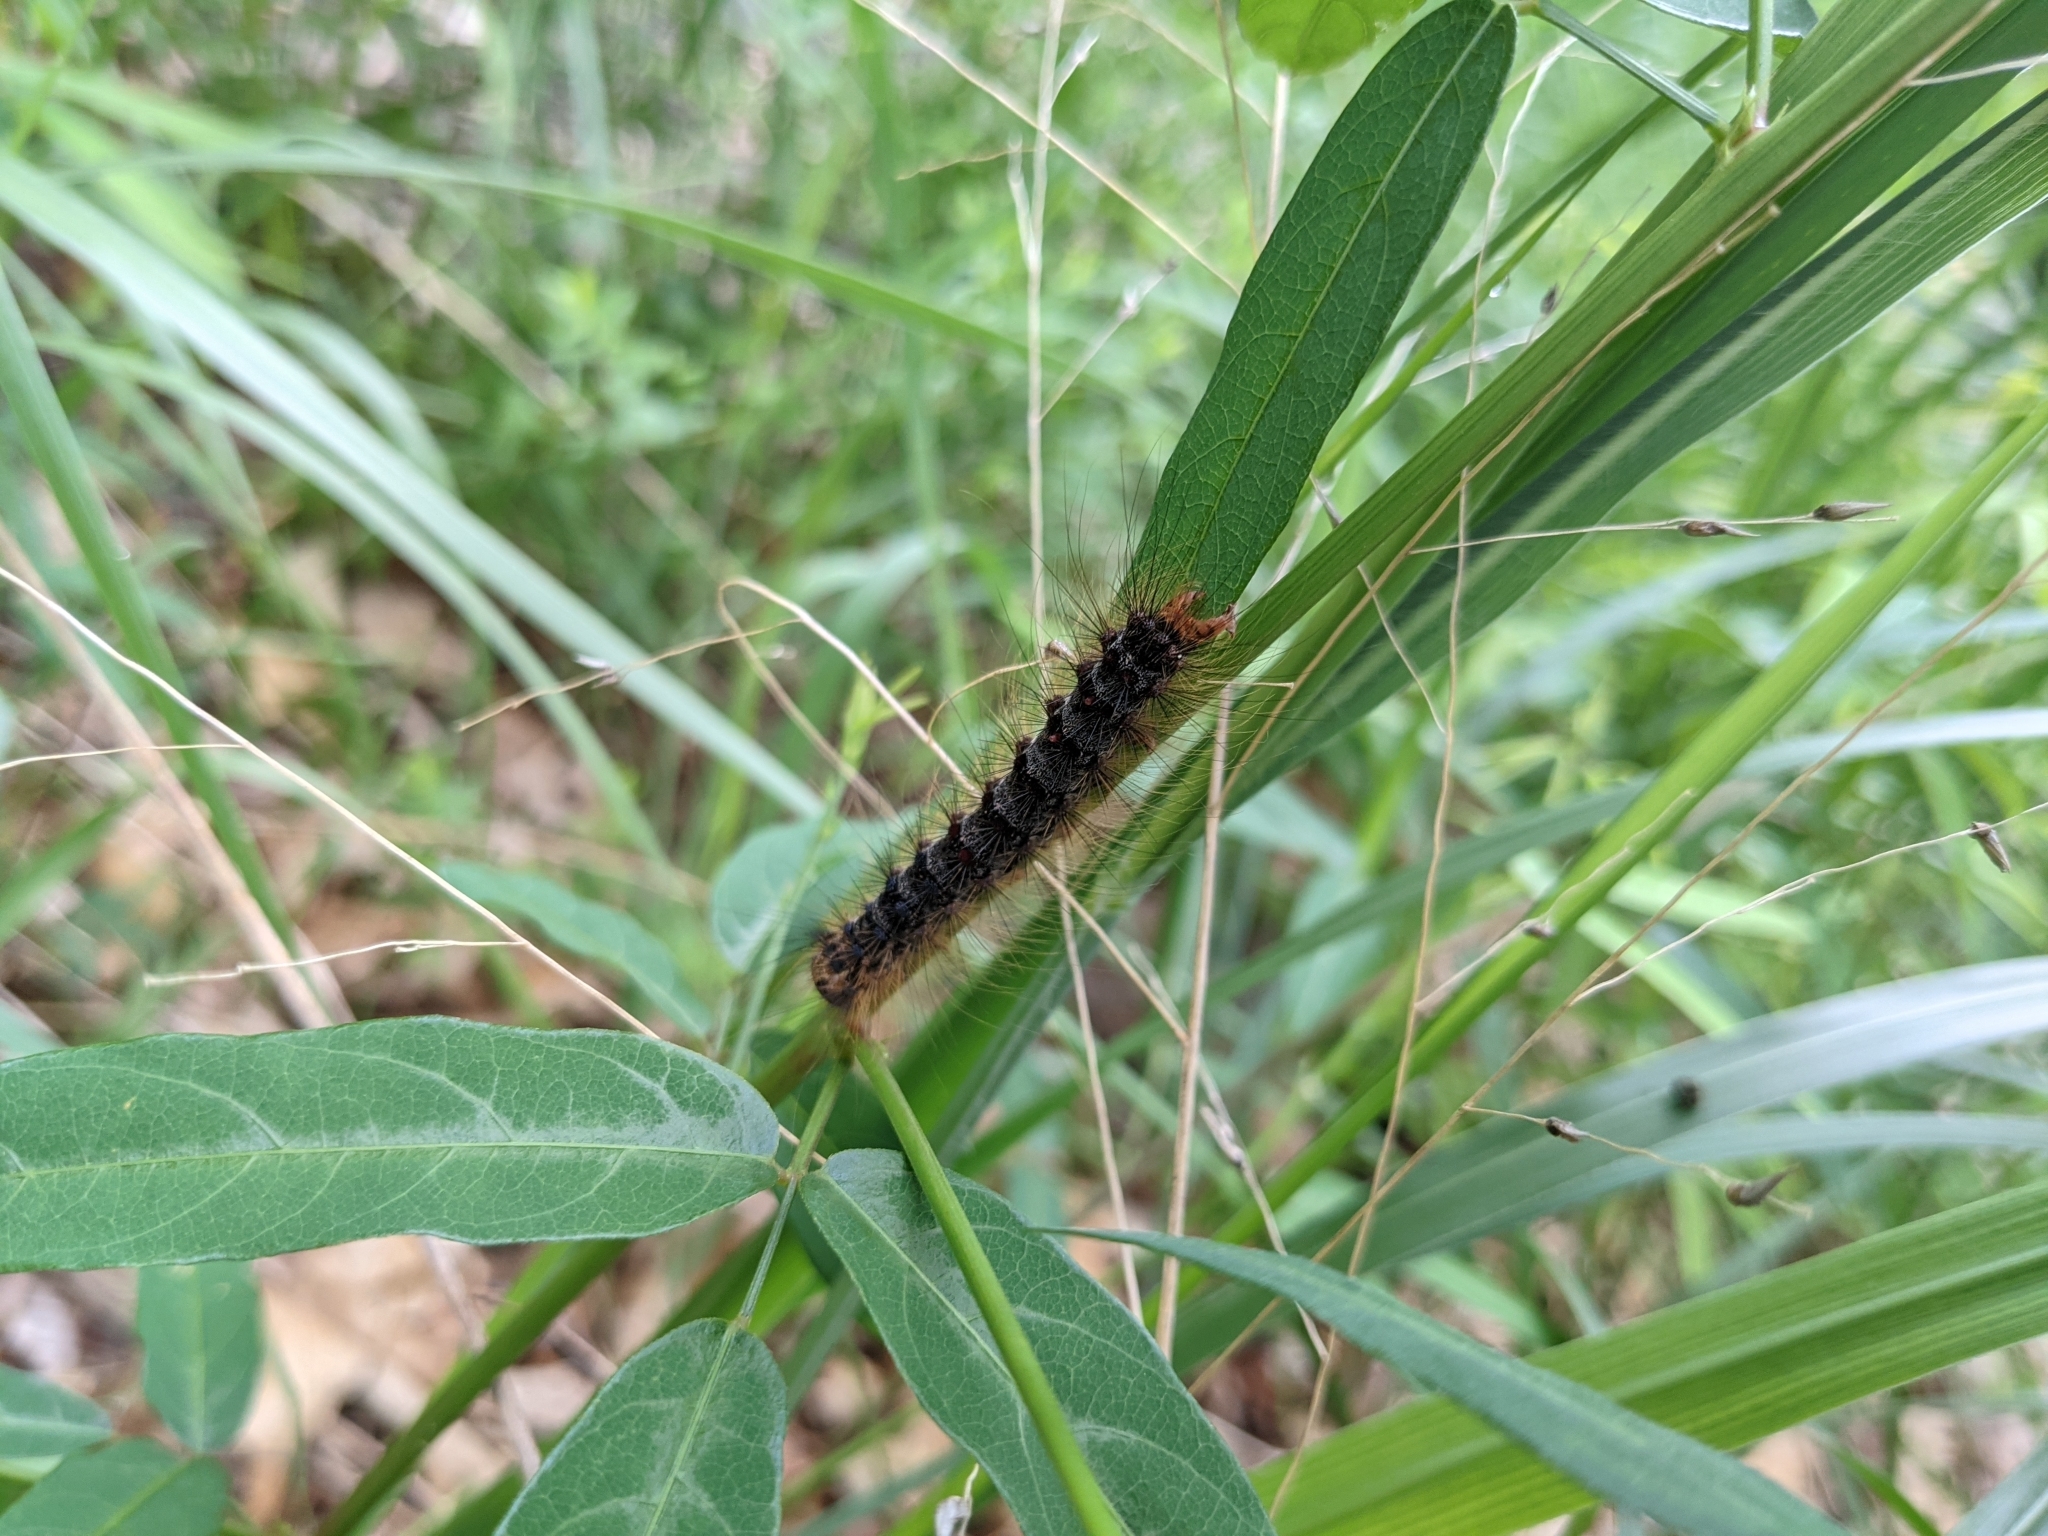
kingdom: Animalia
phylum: Arthropoda
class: Insecta
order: Lepidoptera
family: Erebidae
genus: Lymantria
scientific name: Lymantria dispar
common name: Gypsy moth
